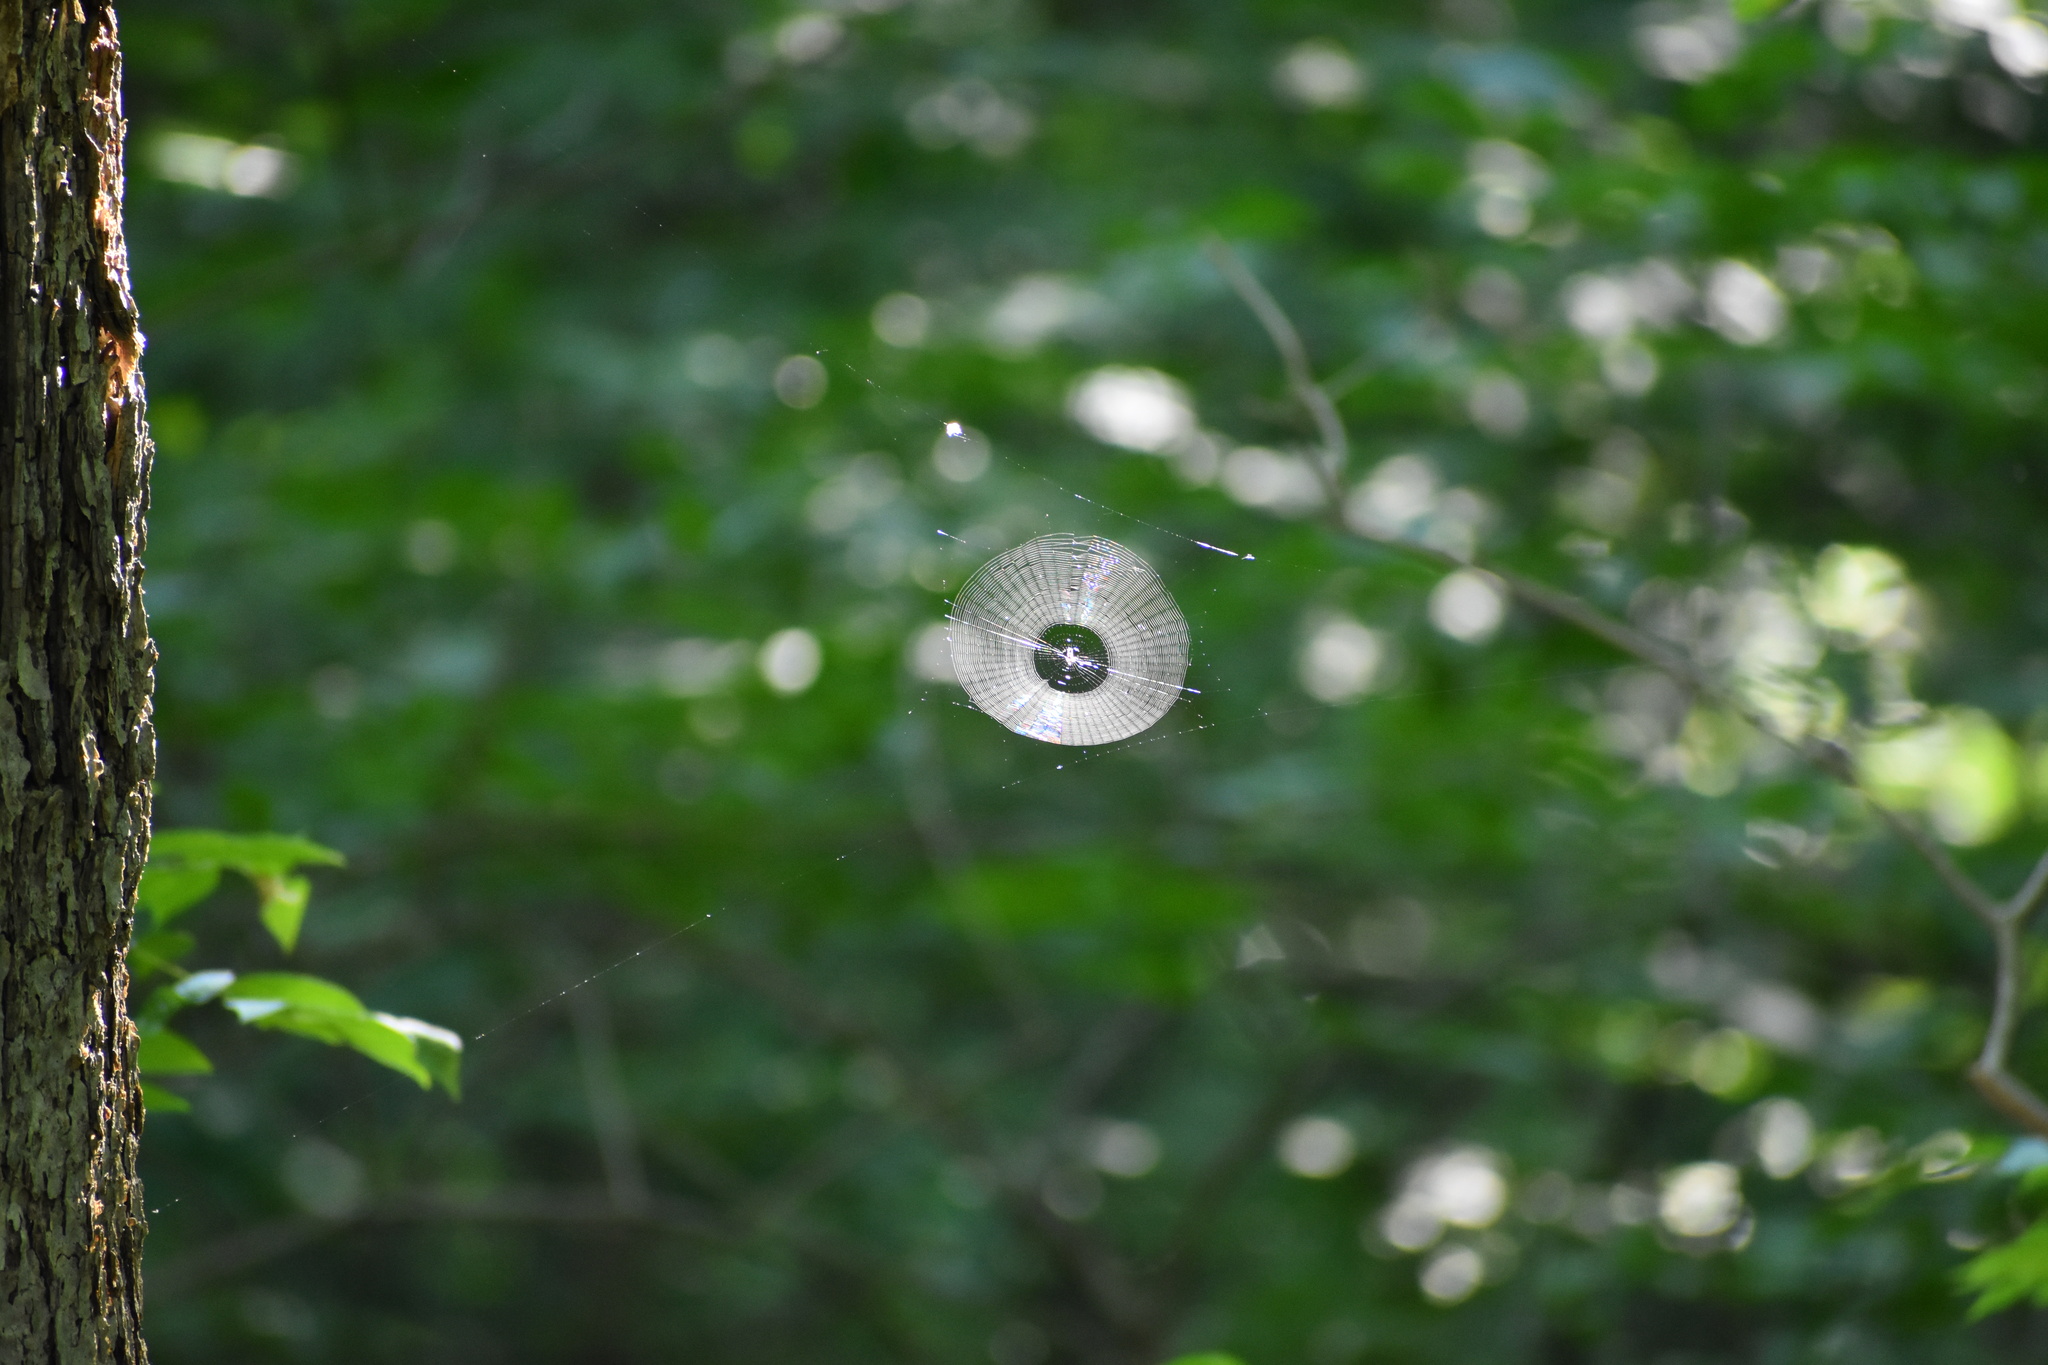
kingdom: Animalia
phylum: Arthropoda
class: Arachnida
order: Araneae
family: Araneidae
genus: Micrathena
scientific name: Micrathena gracilis
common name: Orb weavers
